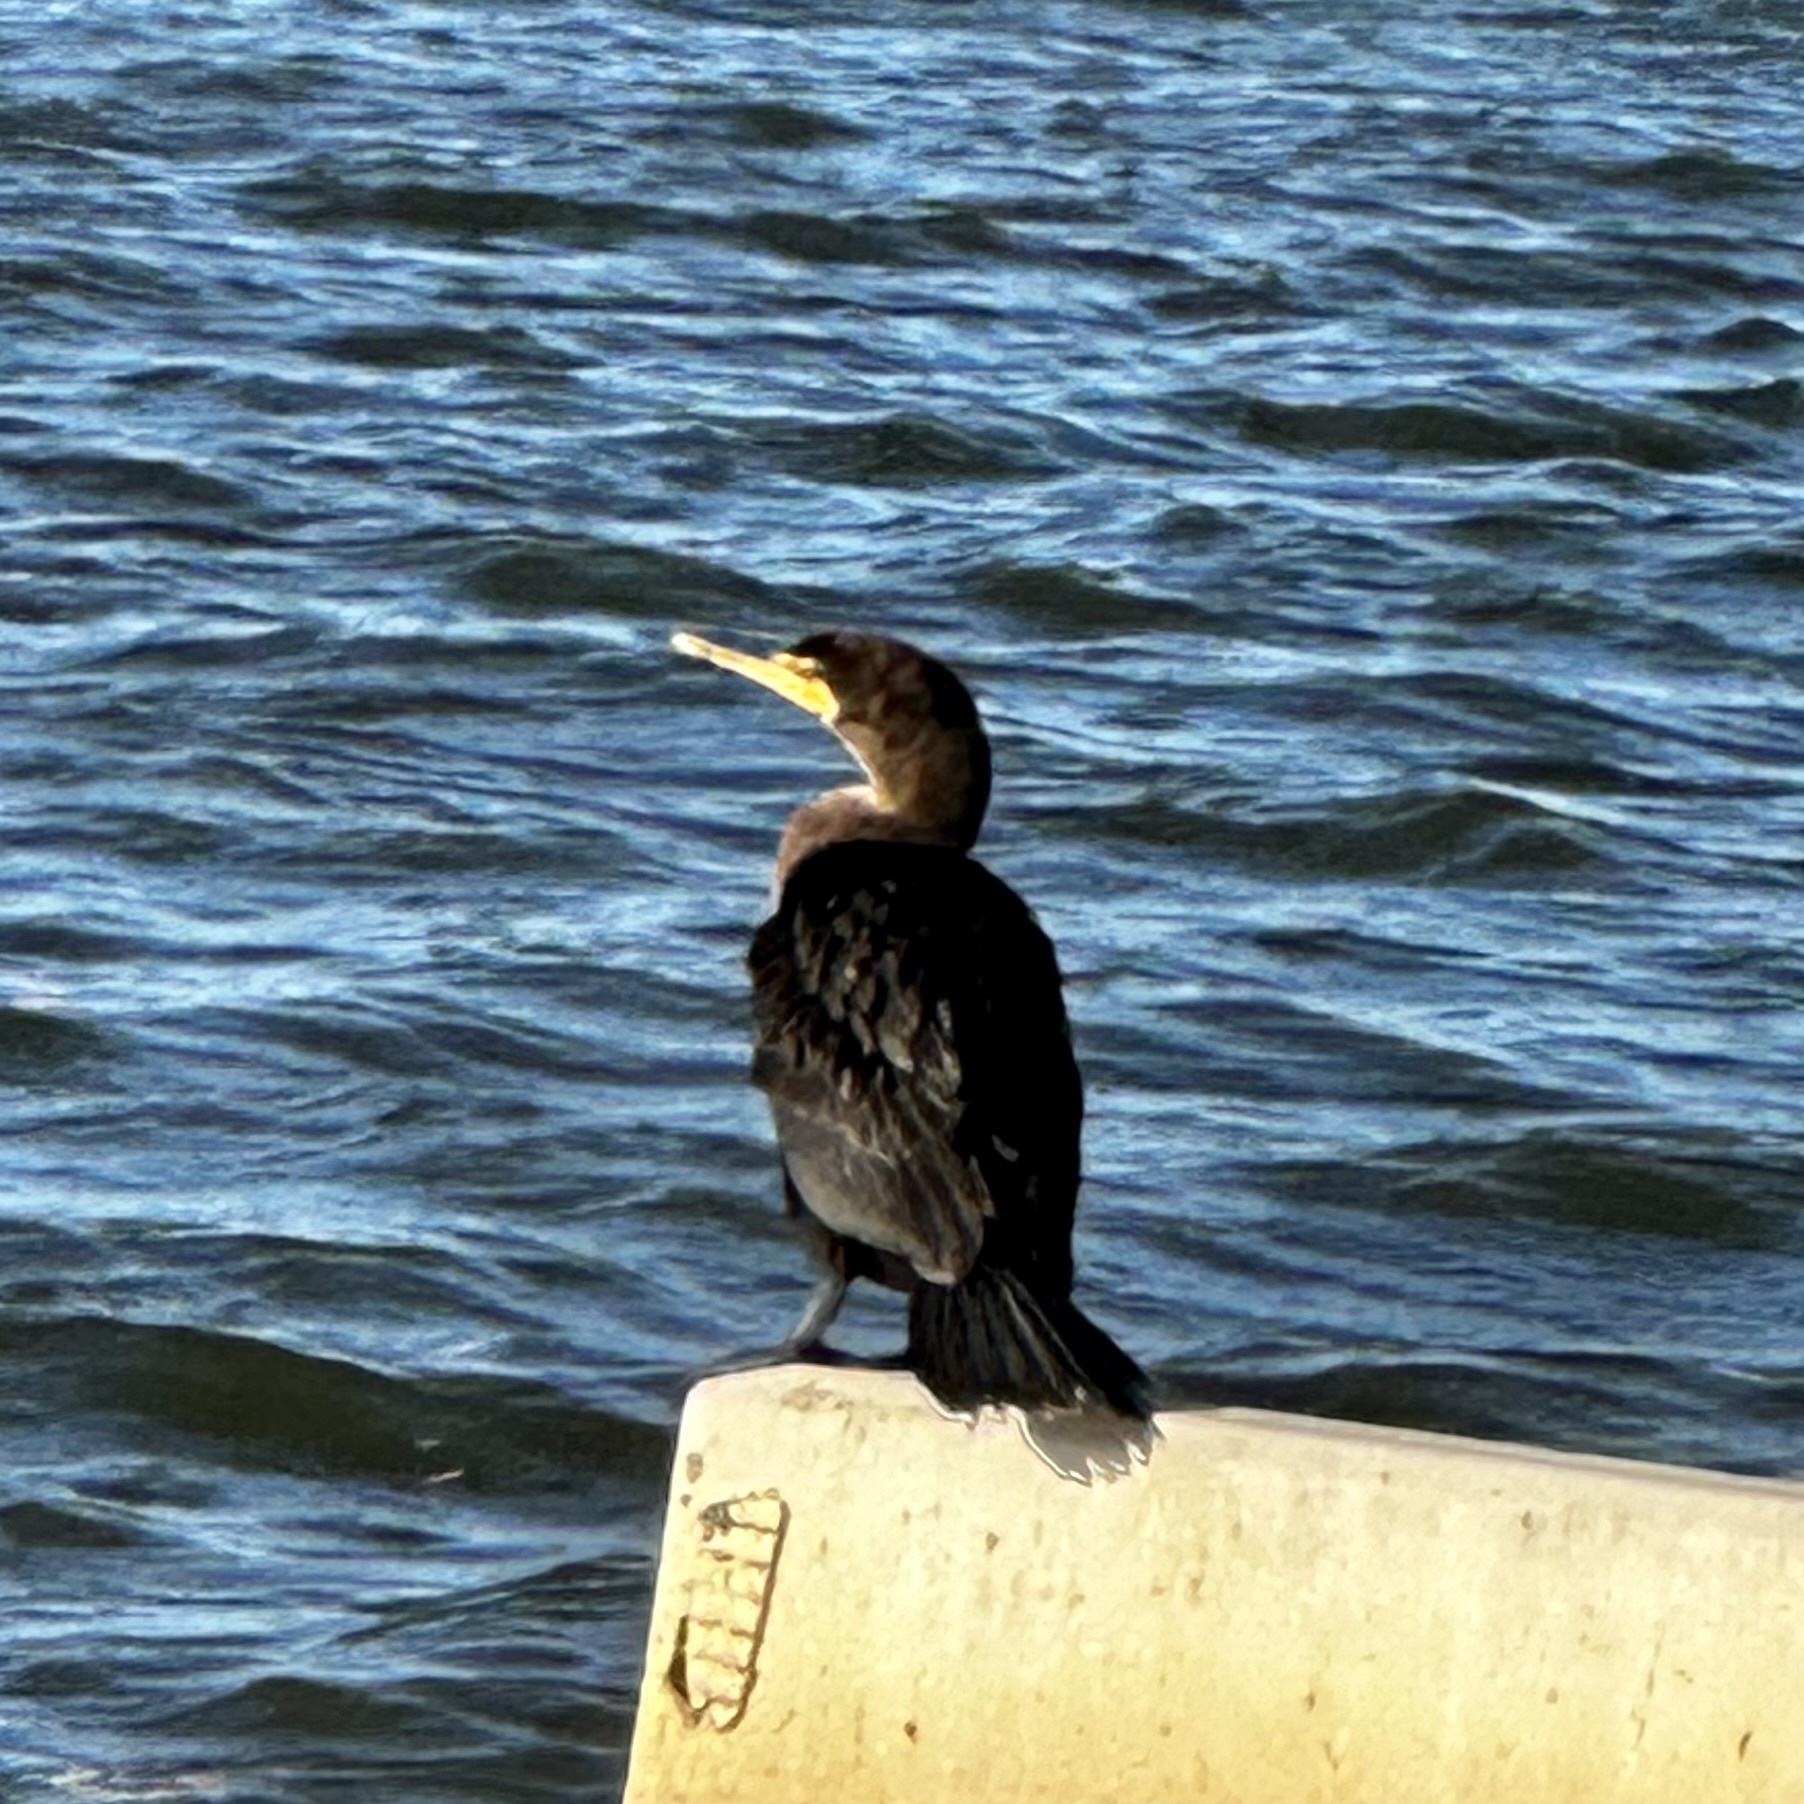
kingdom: Animalia
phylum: Chordata
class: Aves
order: Suliformes
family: Phalacrocoracidae
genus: Phalacrocorax
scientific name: Phalacrocorax auritus
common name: Double-crested cormorant
